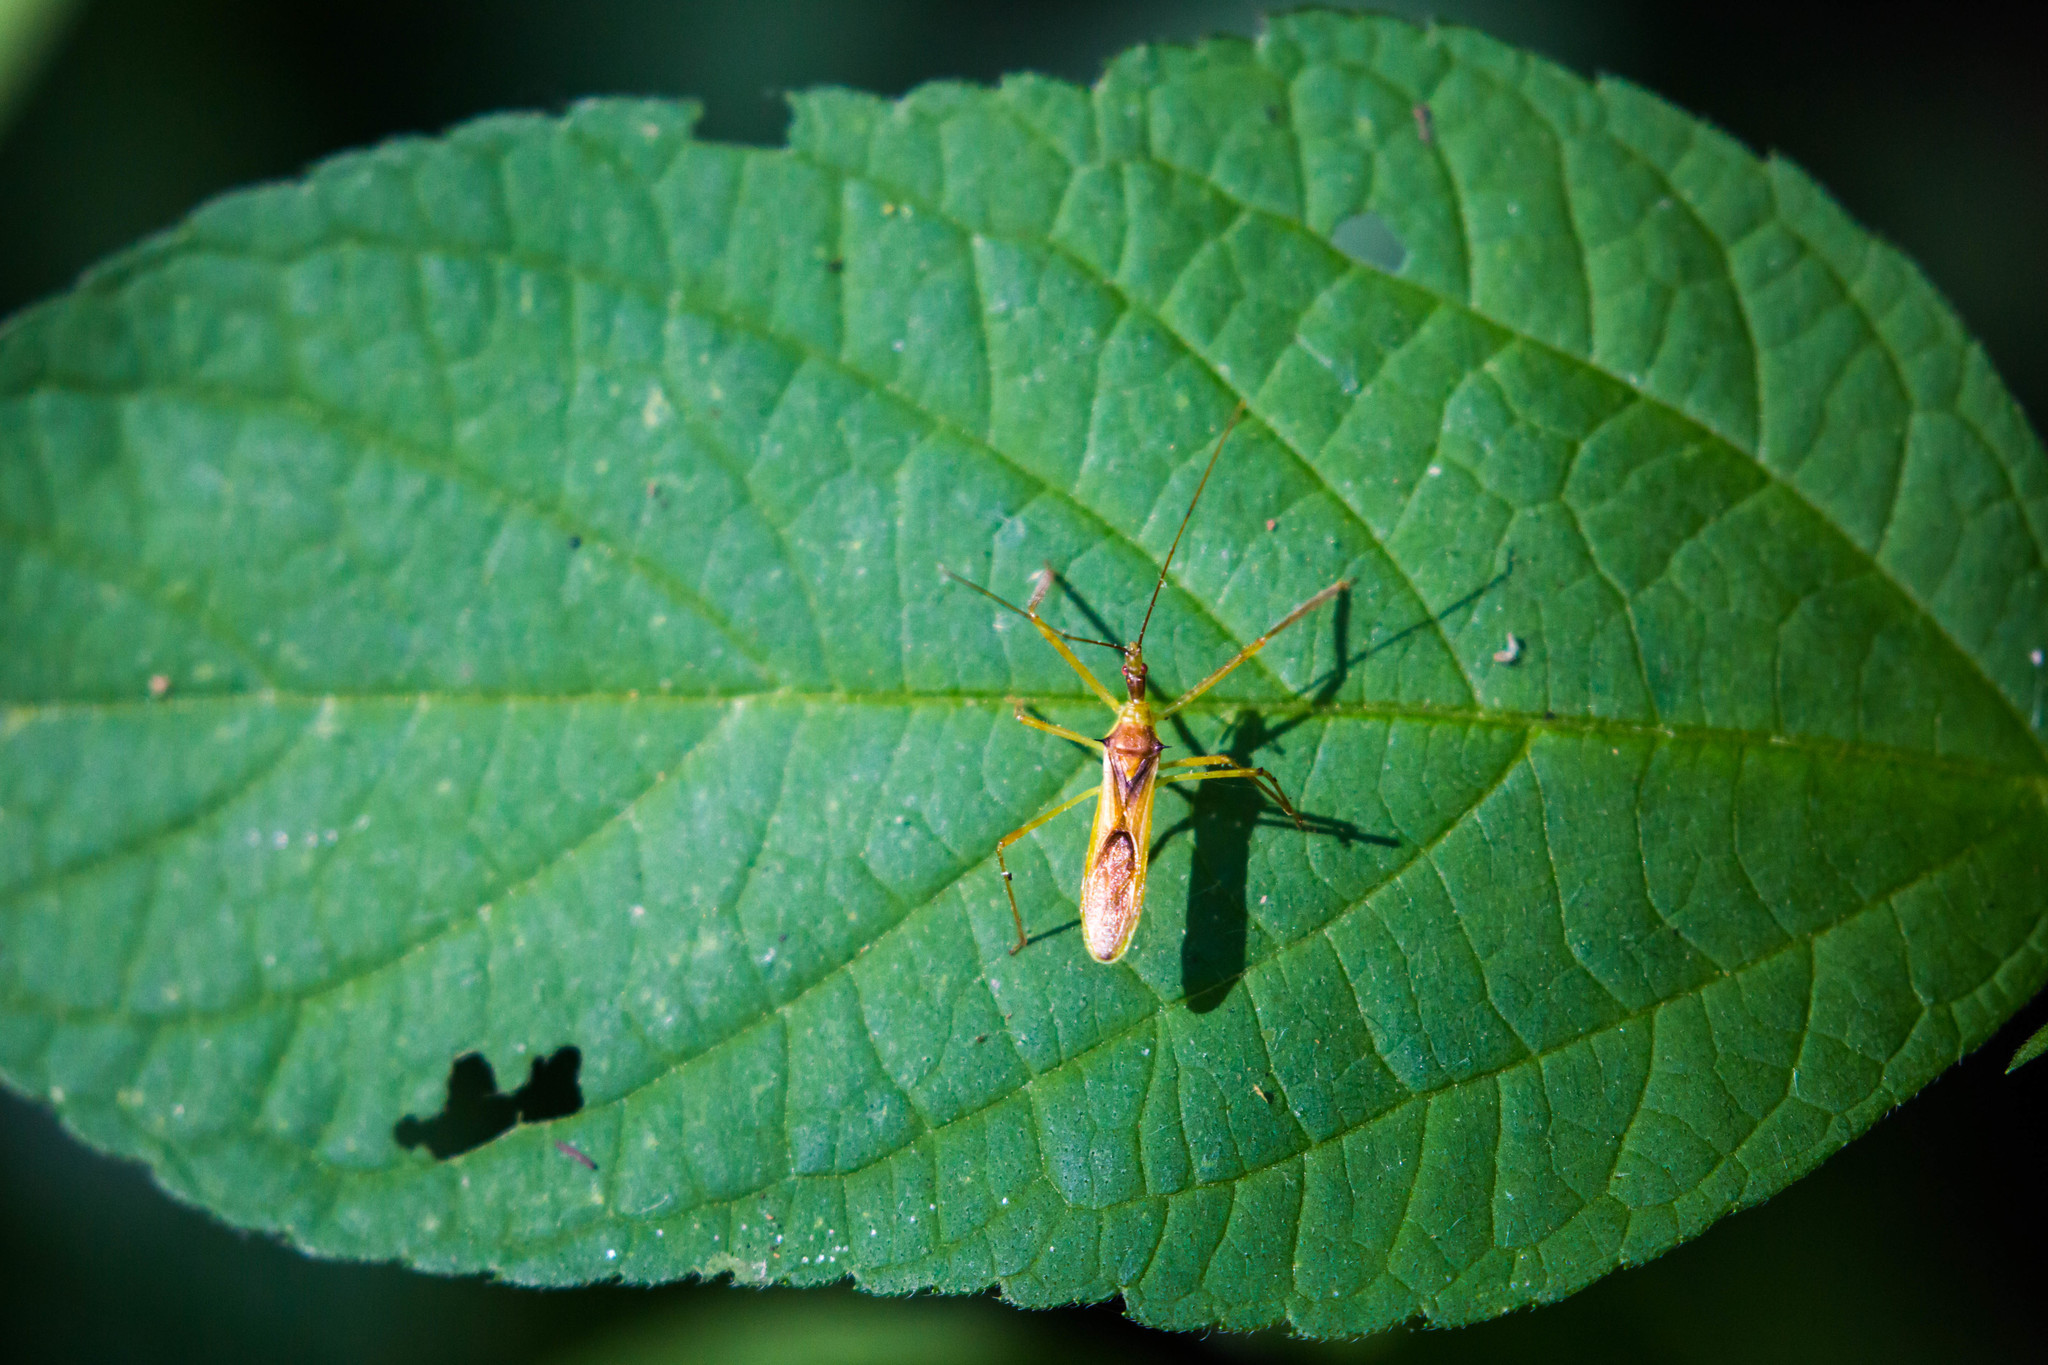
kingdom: Animalia
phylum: Arthropoda
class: Insecta
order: Hemiptera
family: Reduviidae
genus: Zelus
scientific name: Zelus luridus
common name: Pale green assassin bug
